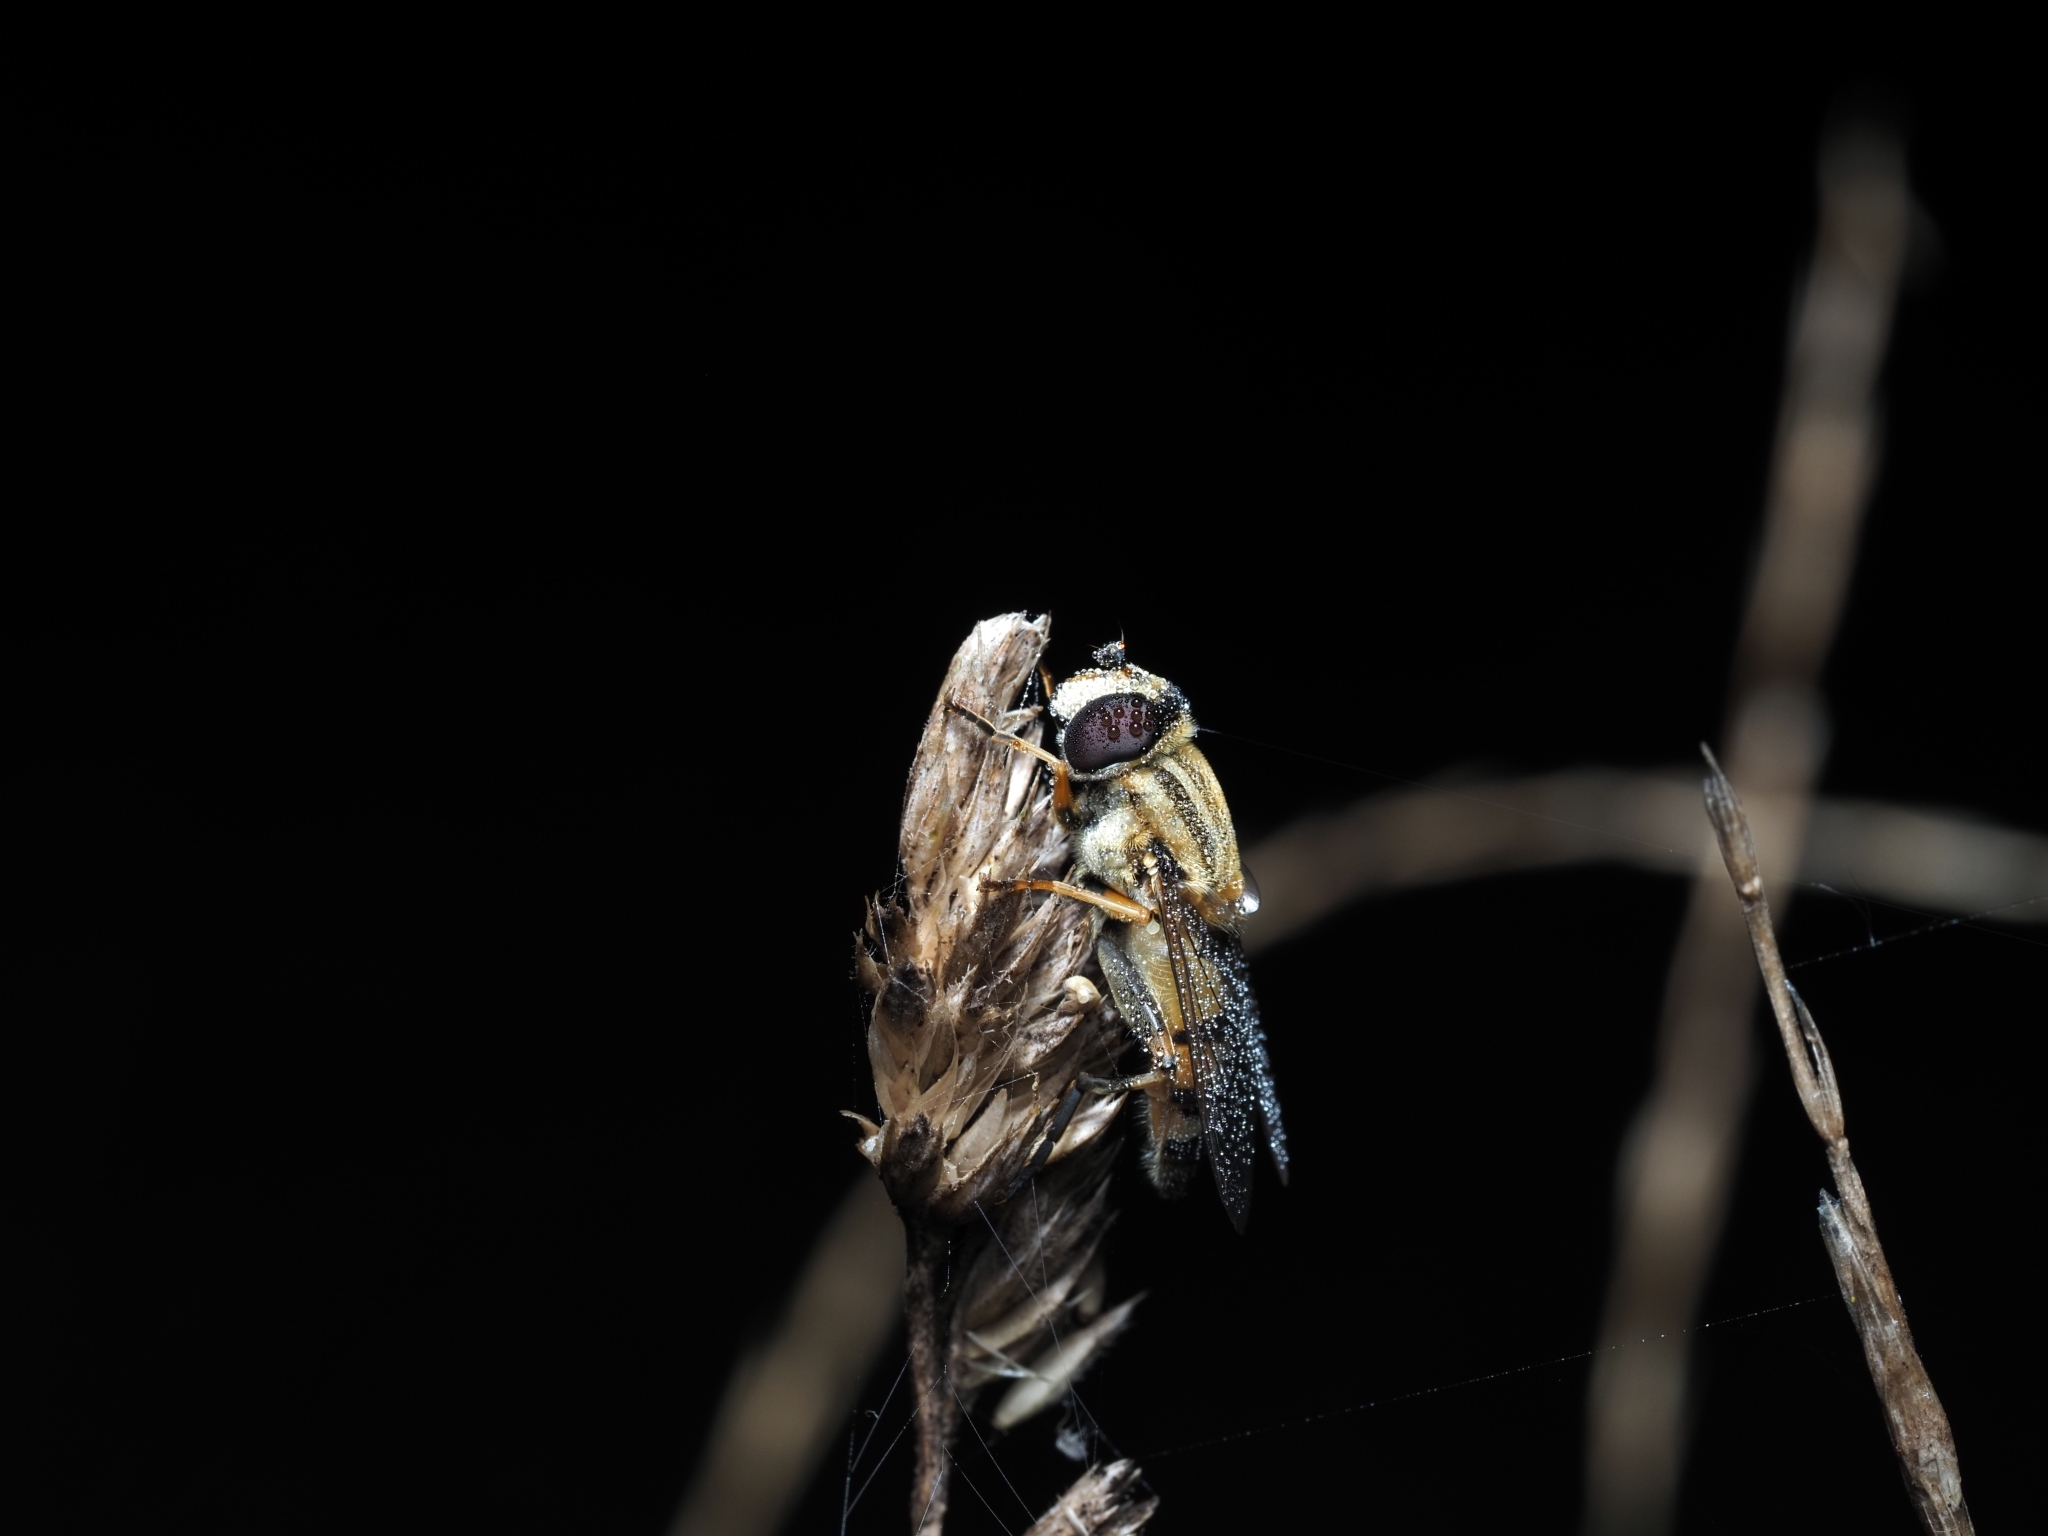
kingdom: Animalia
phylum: Arthropoda
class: Insecta
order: Diptera
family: Syrphidae
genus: Helophilus
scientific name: Helophilus trivittatus
